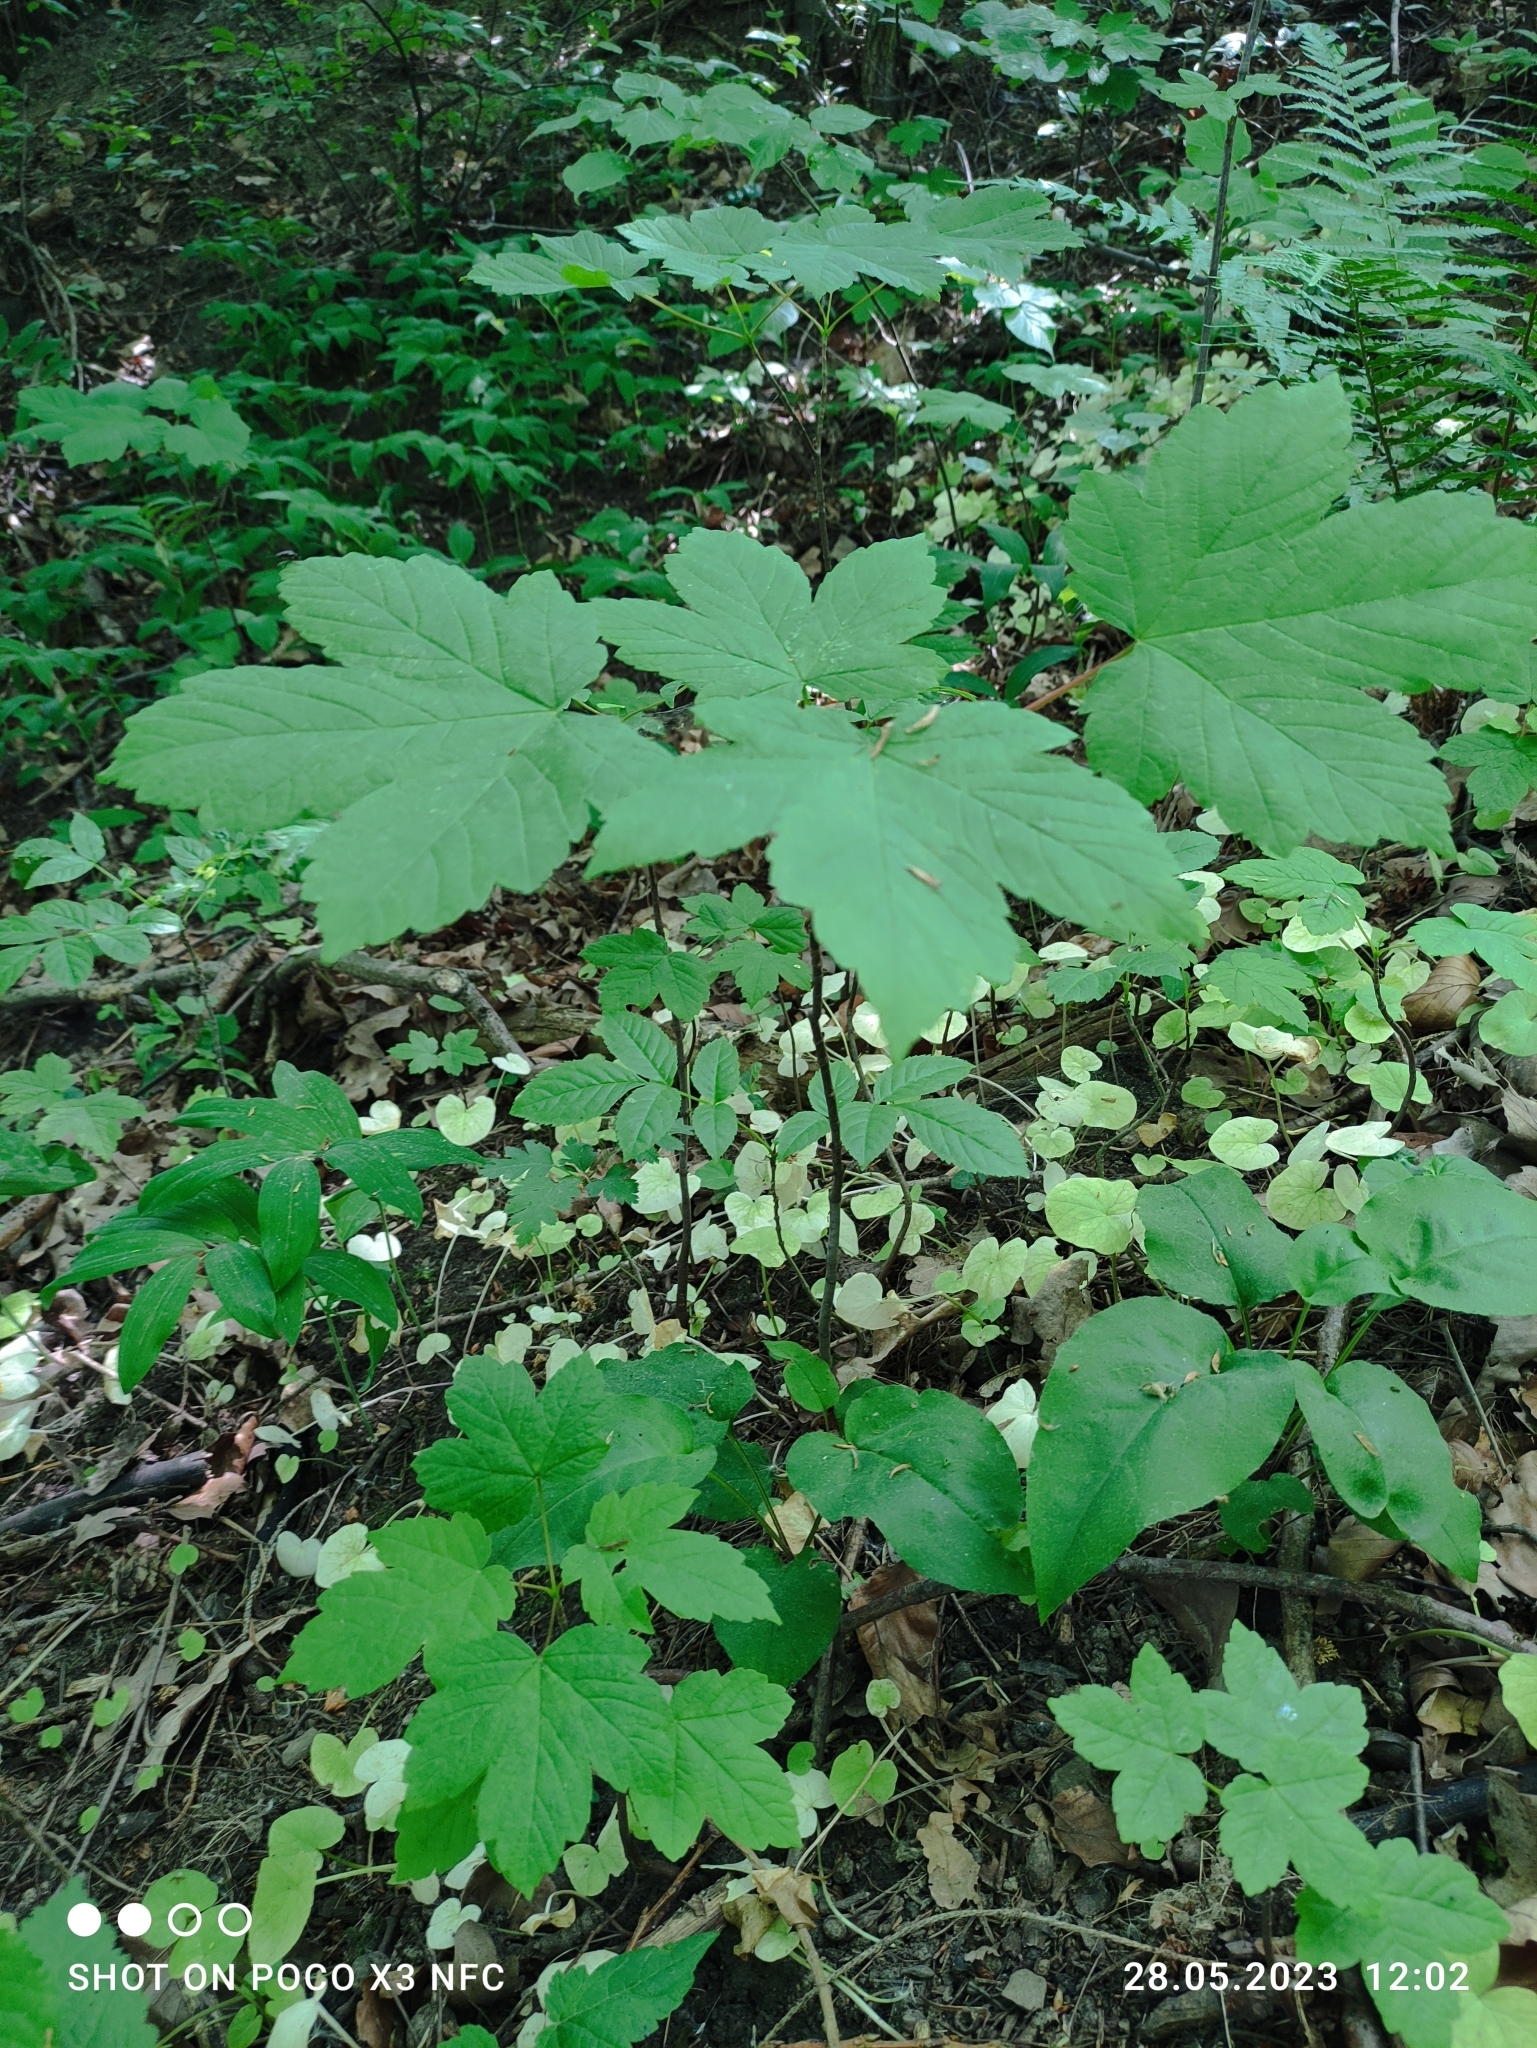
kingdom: Plantae
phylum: Tracheophyta
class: Magnoliopsida
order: Sapindales
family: Sapindaceae
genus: Acer
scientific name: Acer pseudoplatanus
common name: Sycamore
